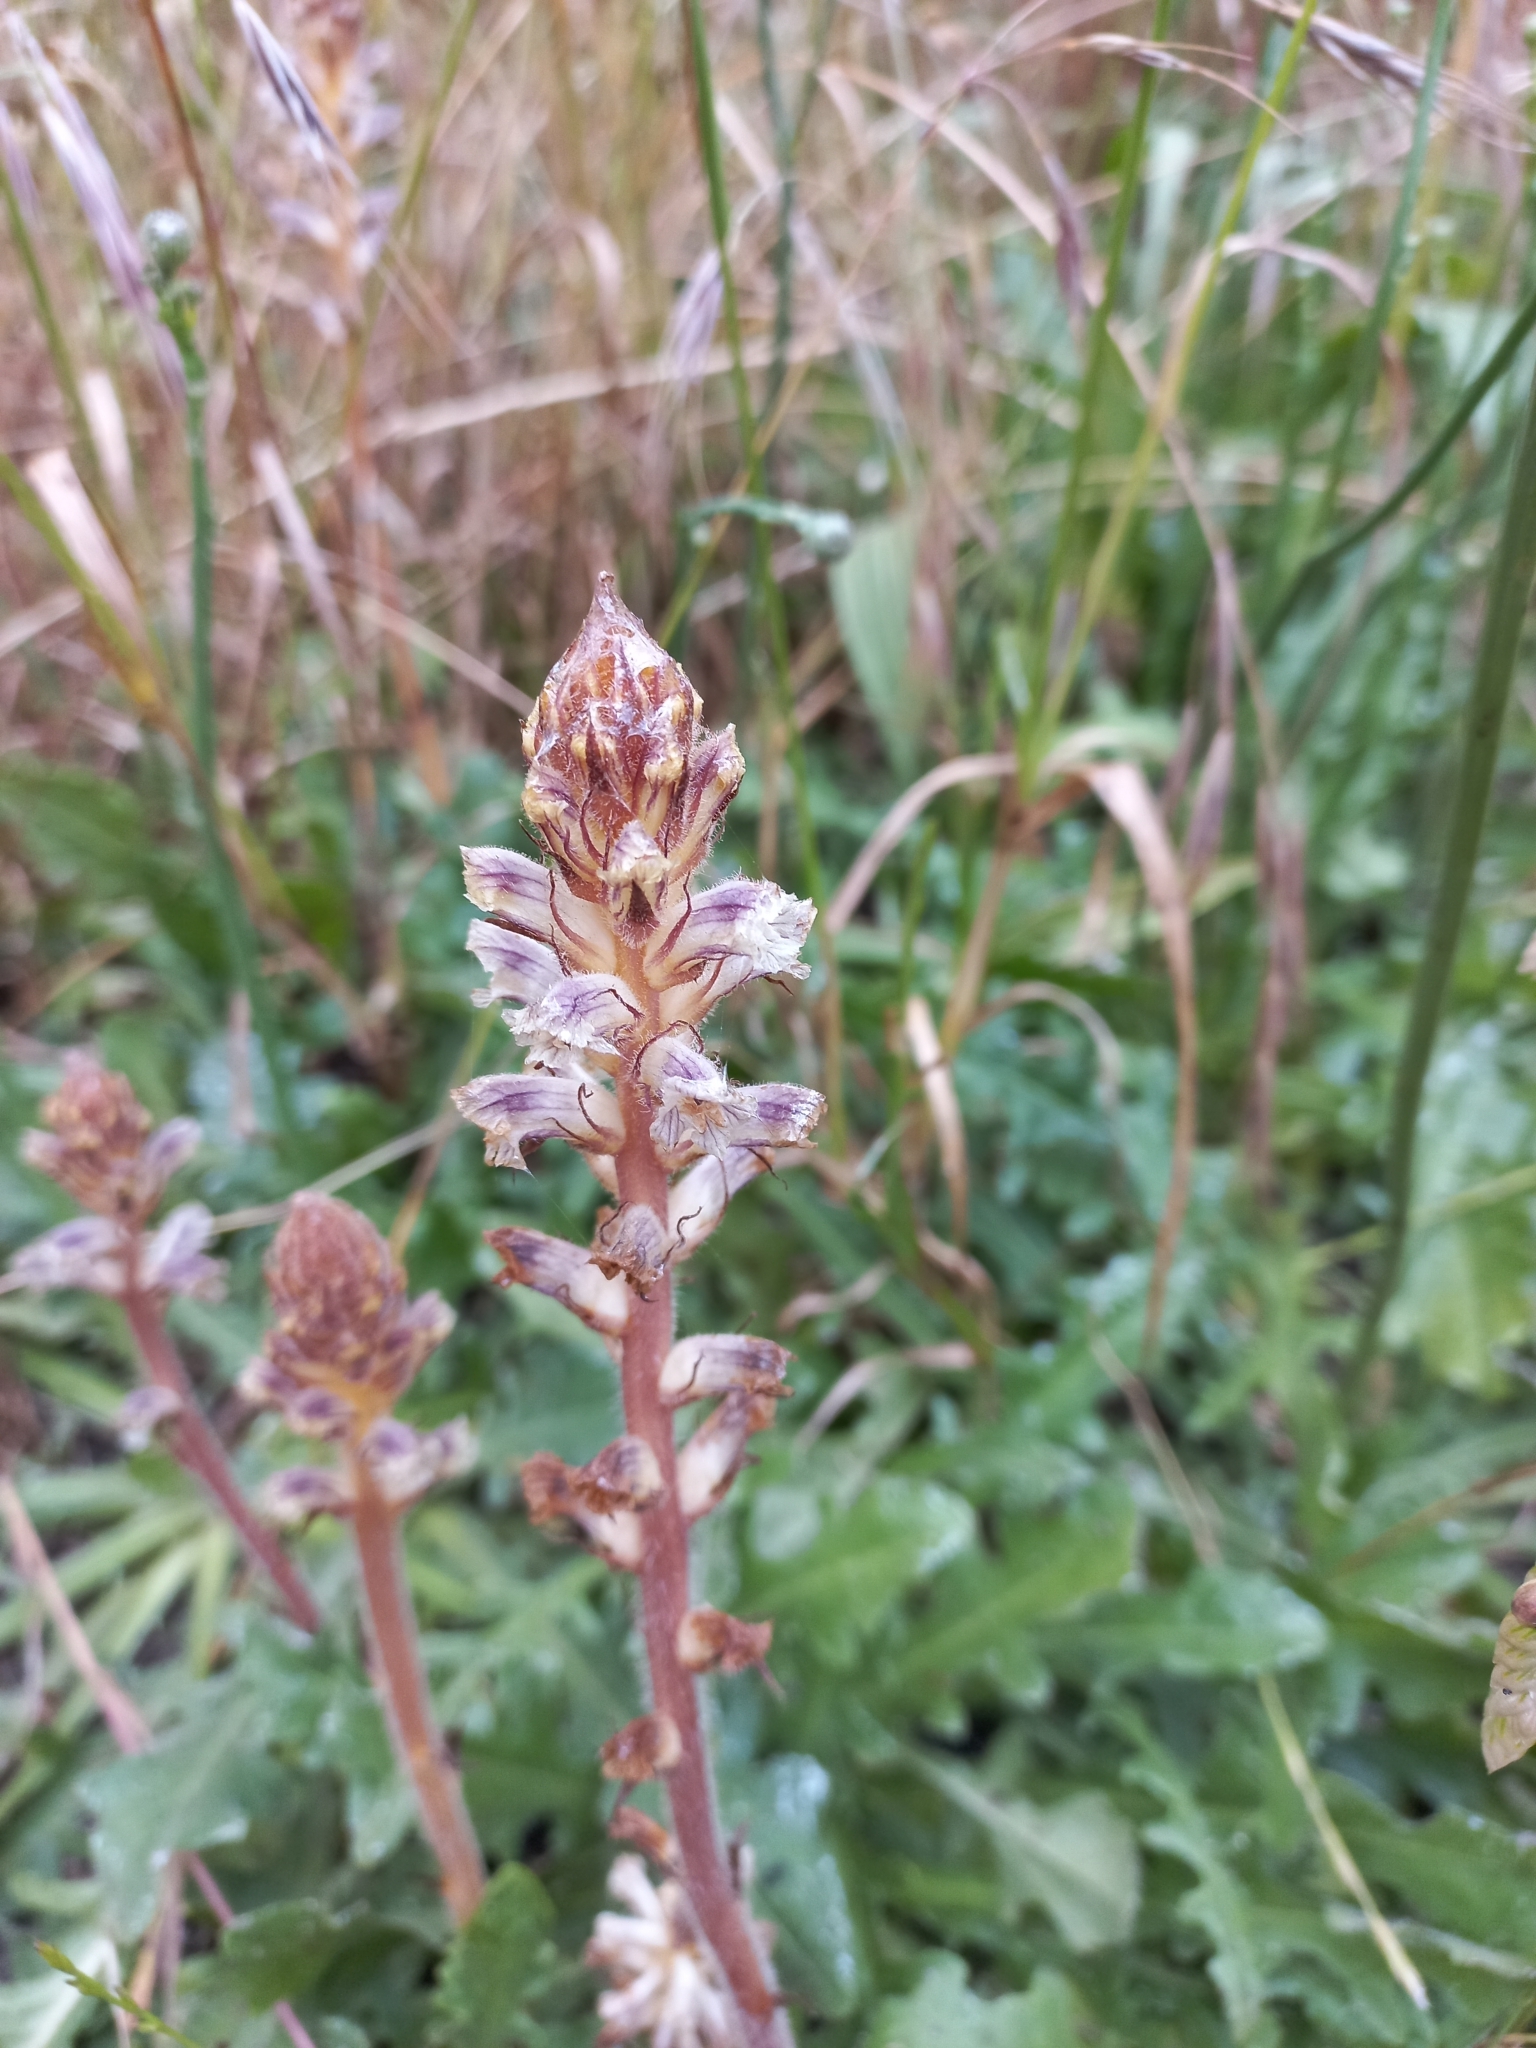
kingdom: Plantae
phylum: Tracheophyta
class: Magnoliopsida
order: Lamiales
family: Orobanchaceae
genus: Orobanche
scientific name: Orobanche minor
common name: Common broomrape
